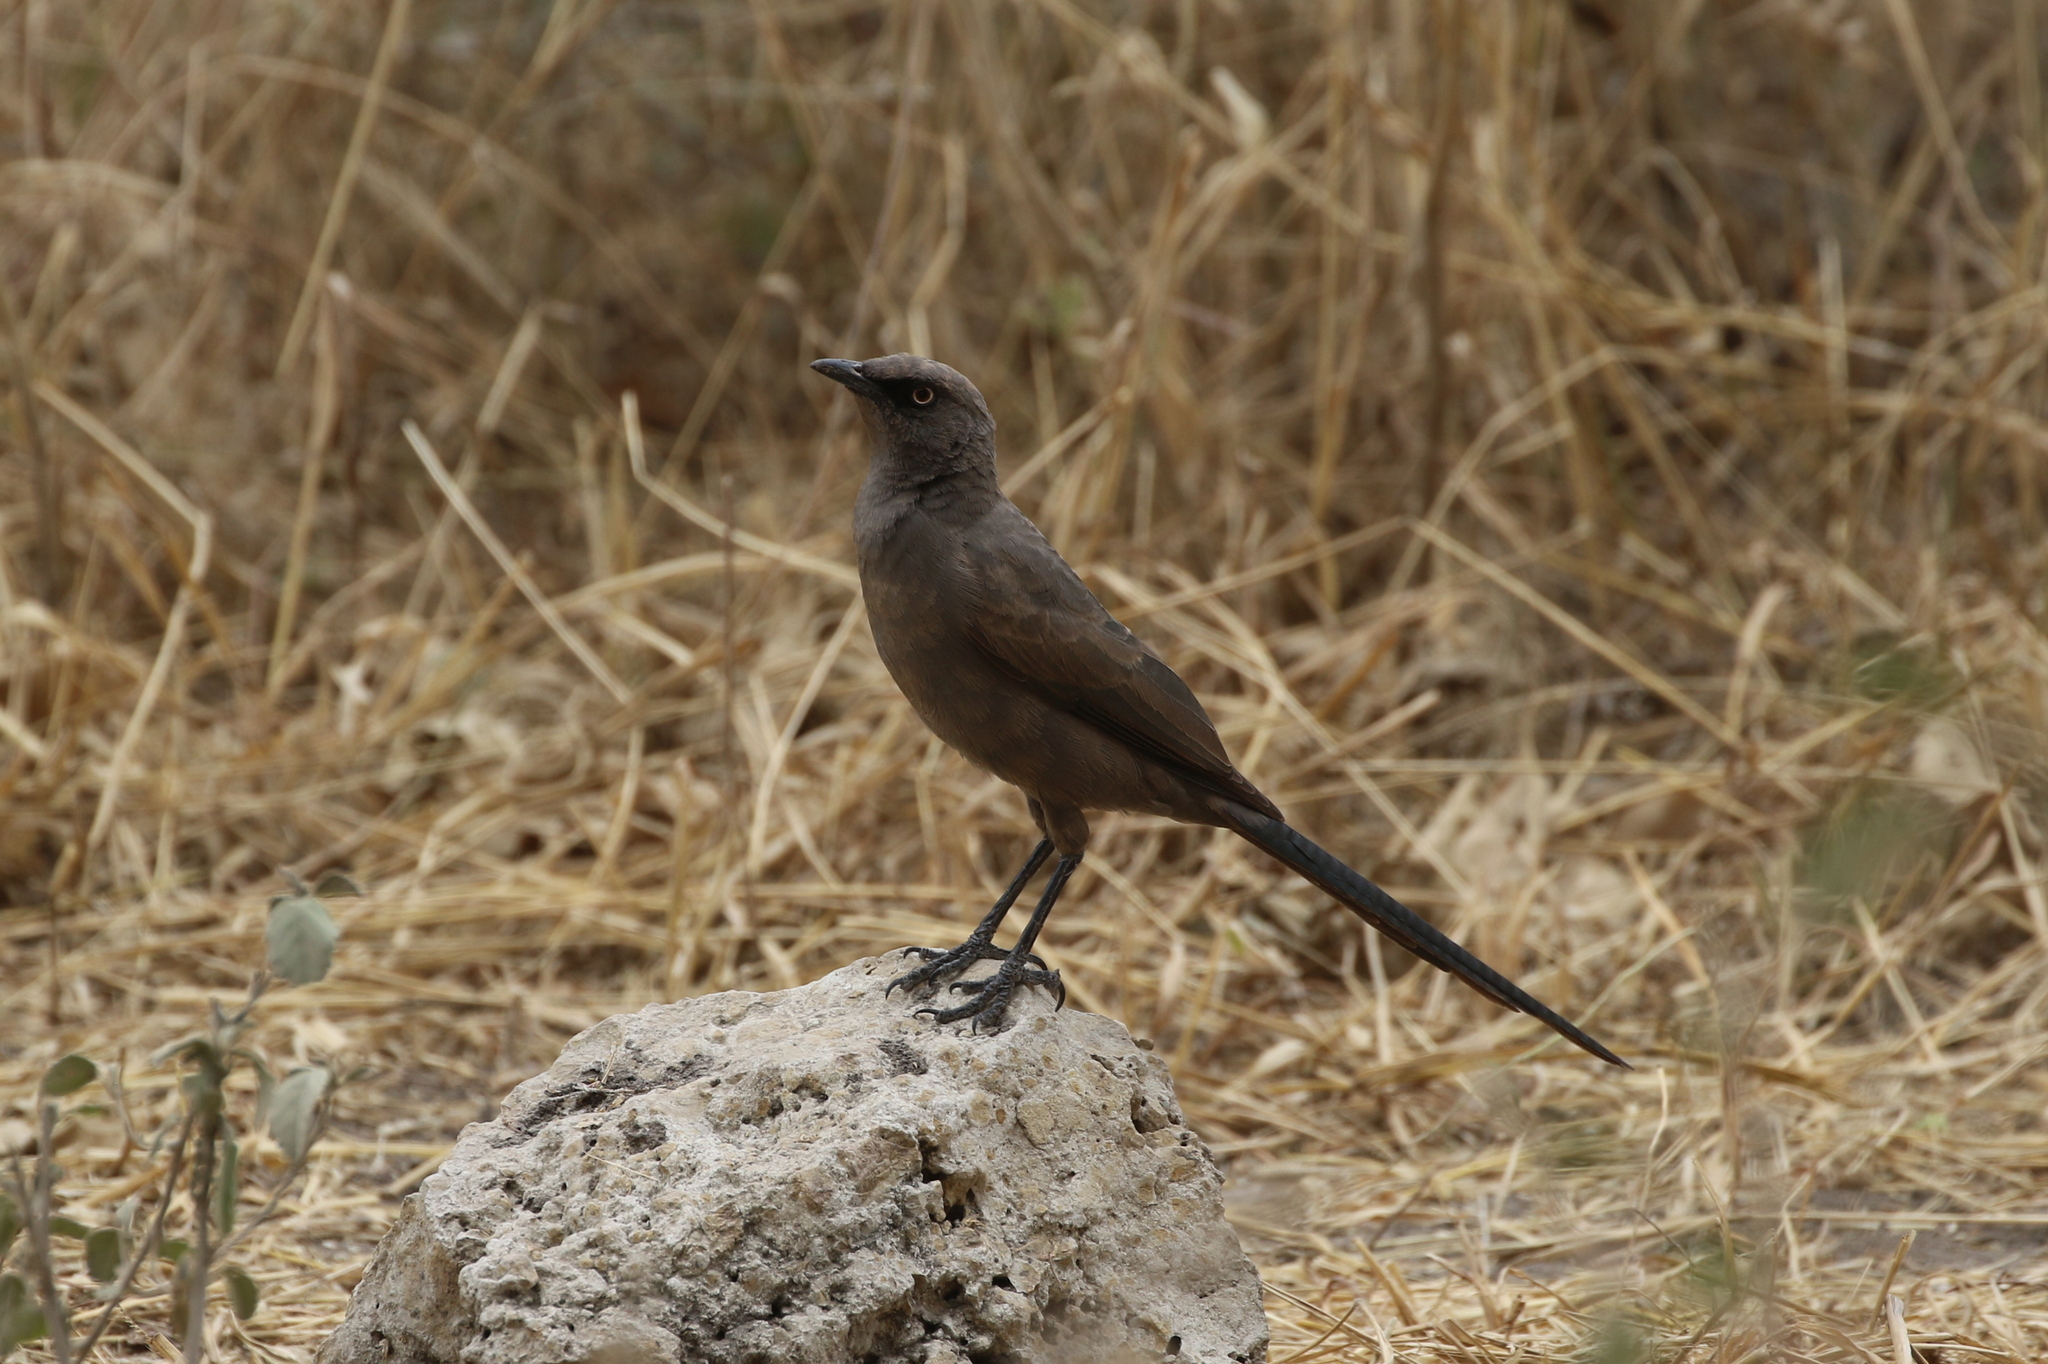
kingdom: Animalia
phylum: Chordata
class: Aves
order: Passeriformes
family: Sturnidae
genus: Lamprotornis
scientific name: Lamprotornis unicolor
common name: Ashy starling
